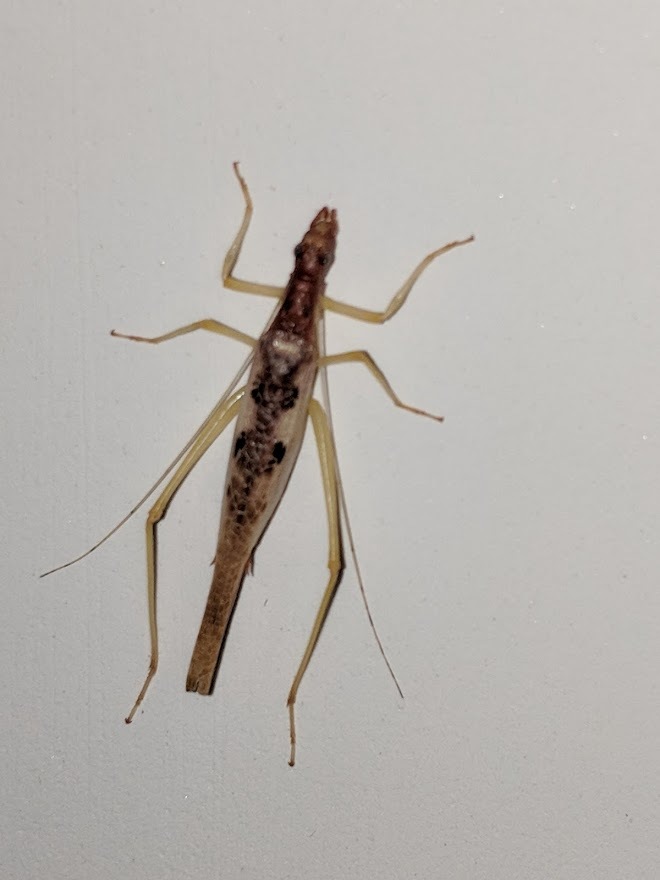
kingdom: Animalia
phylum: Arthropoda
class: Insecta
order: Orthoptera
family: Gryllidae
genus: Neoxabea
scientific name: Neoxabea bipunctata
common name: Two-spotted tree cricket
